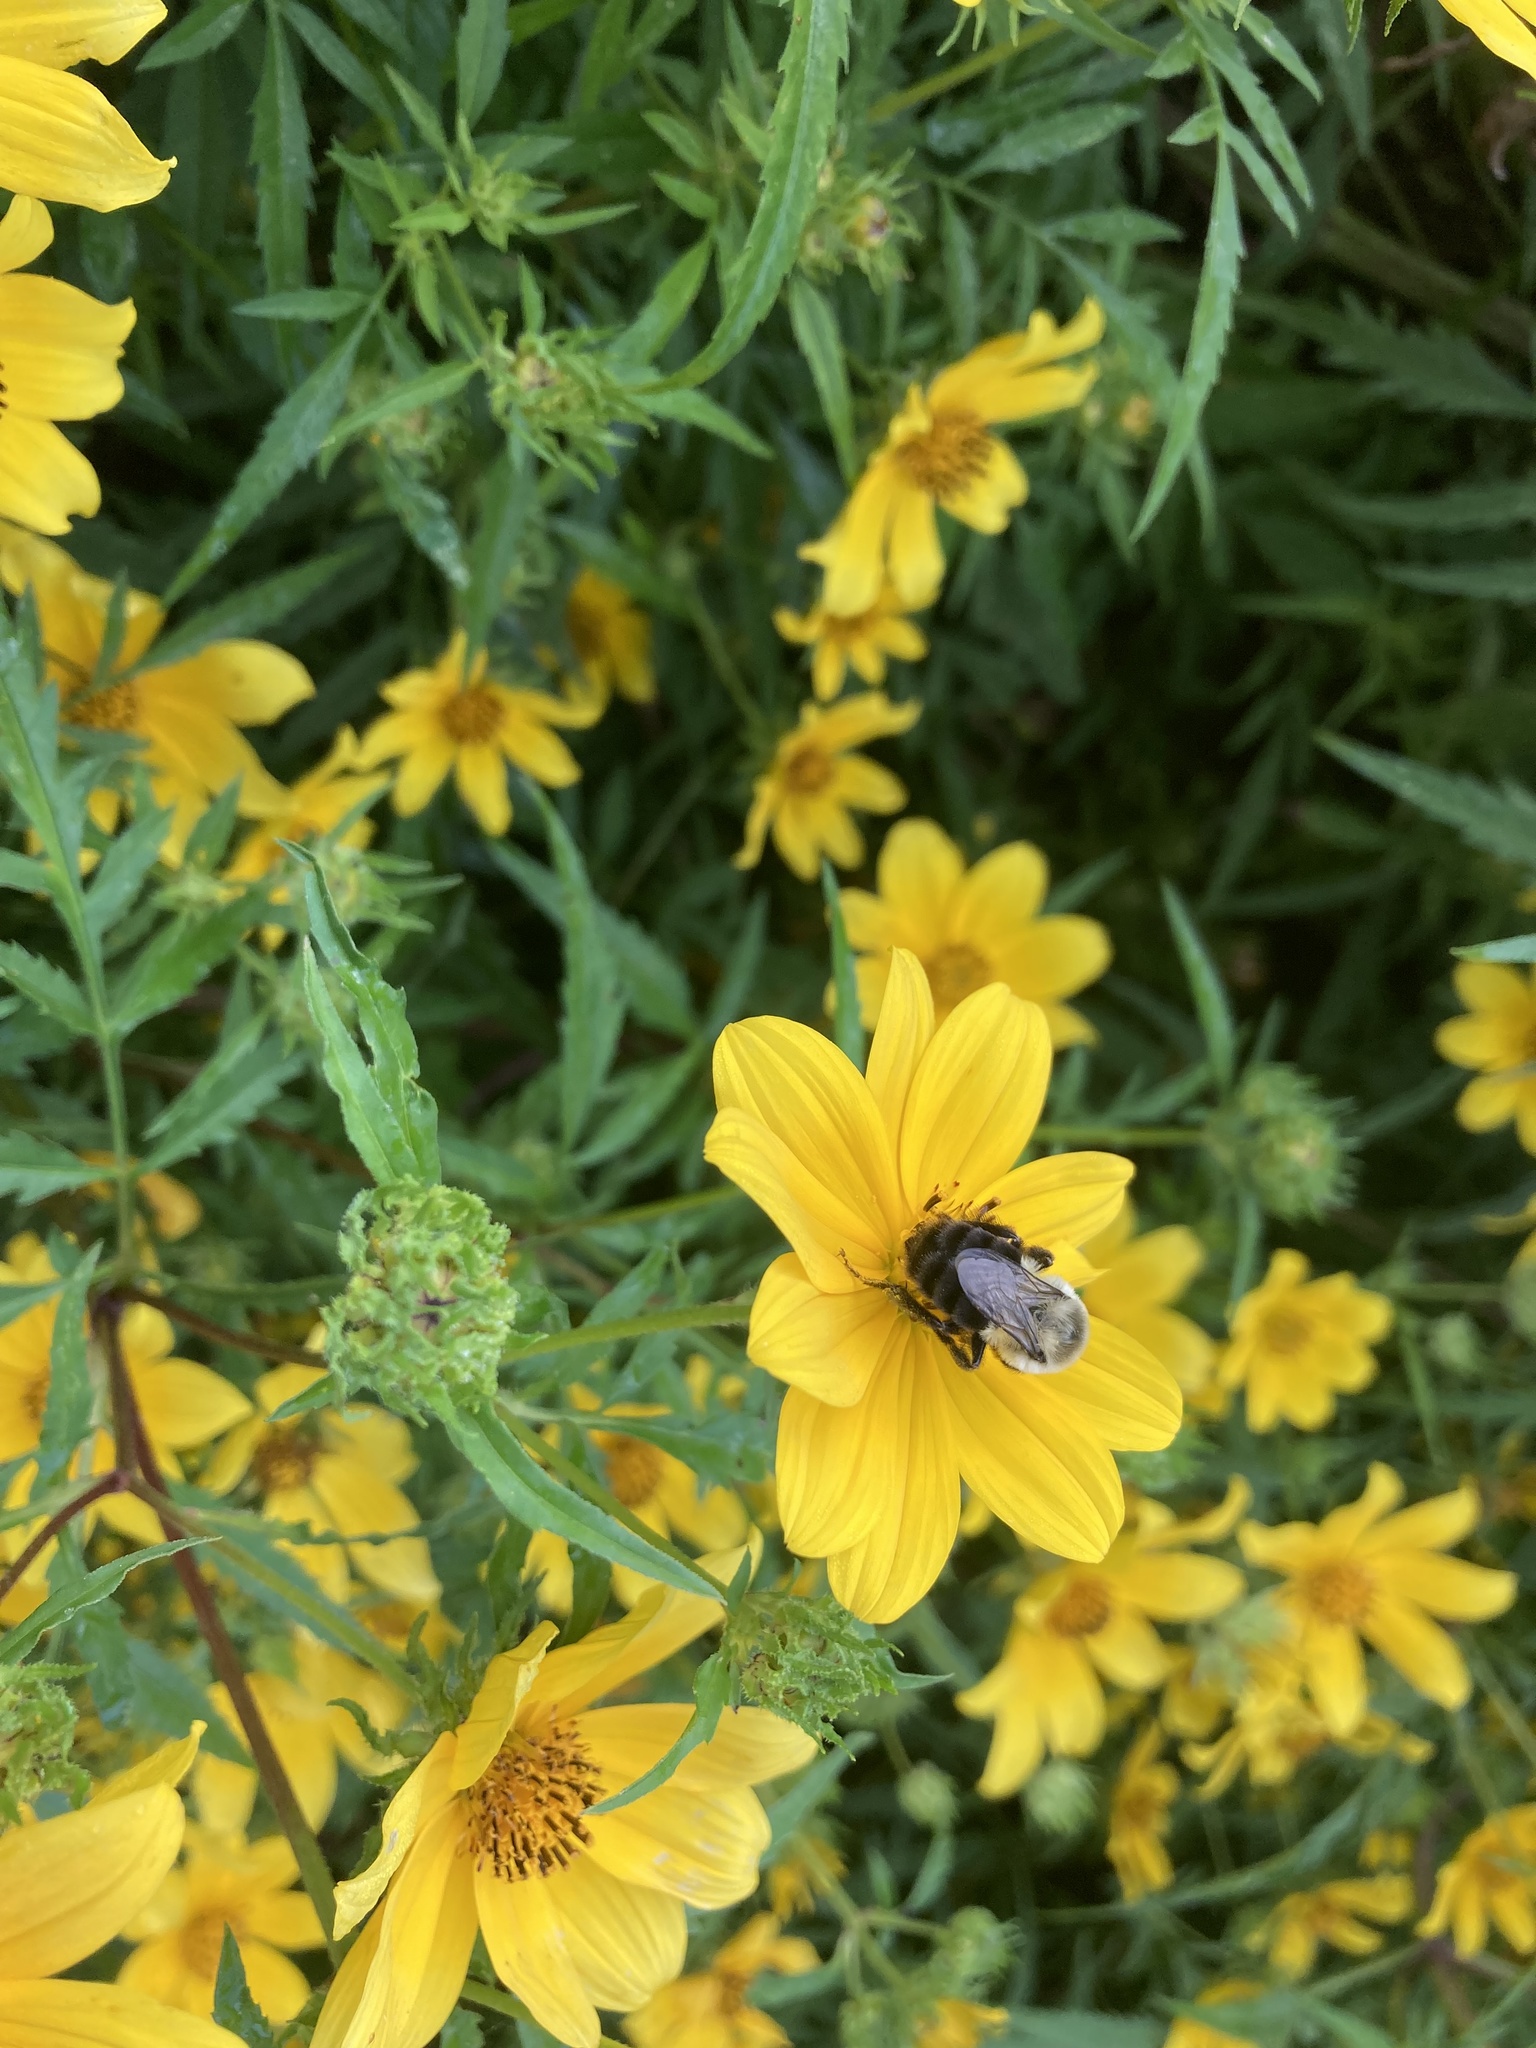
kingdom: Animalia
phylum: Arthropoda
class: Insecta
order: Hymenoptera
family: Apidae
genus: Bombus
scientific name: Bombus impatiens
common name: Common eastern bumble bee
